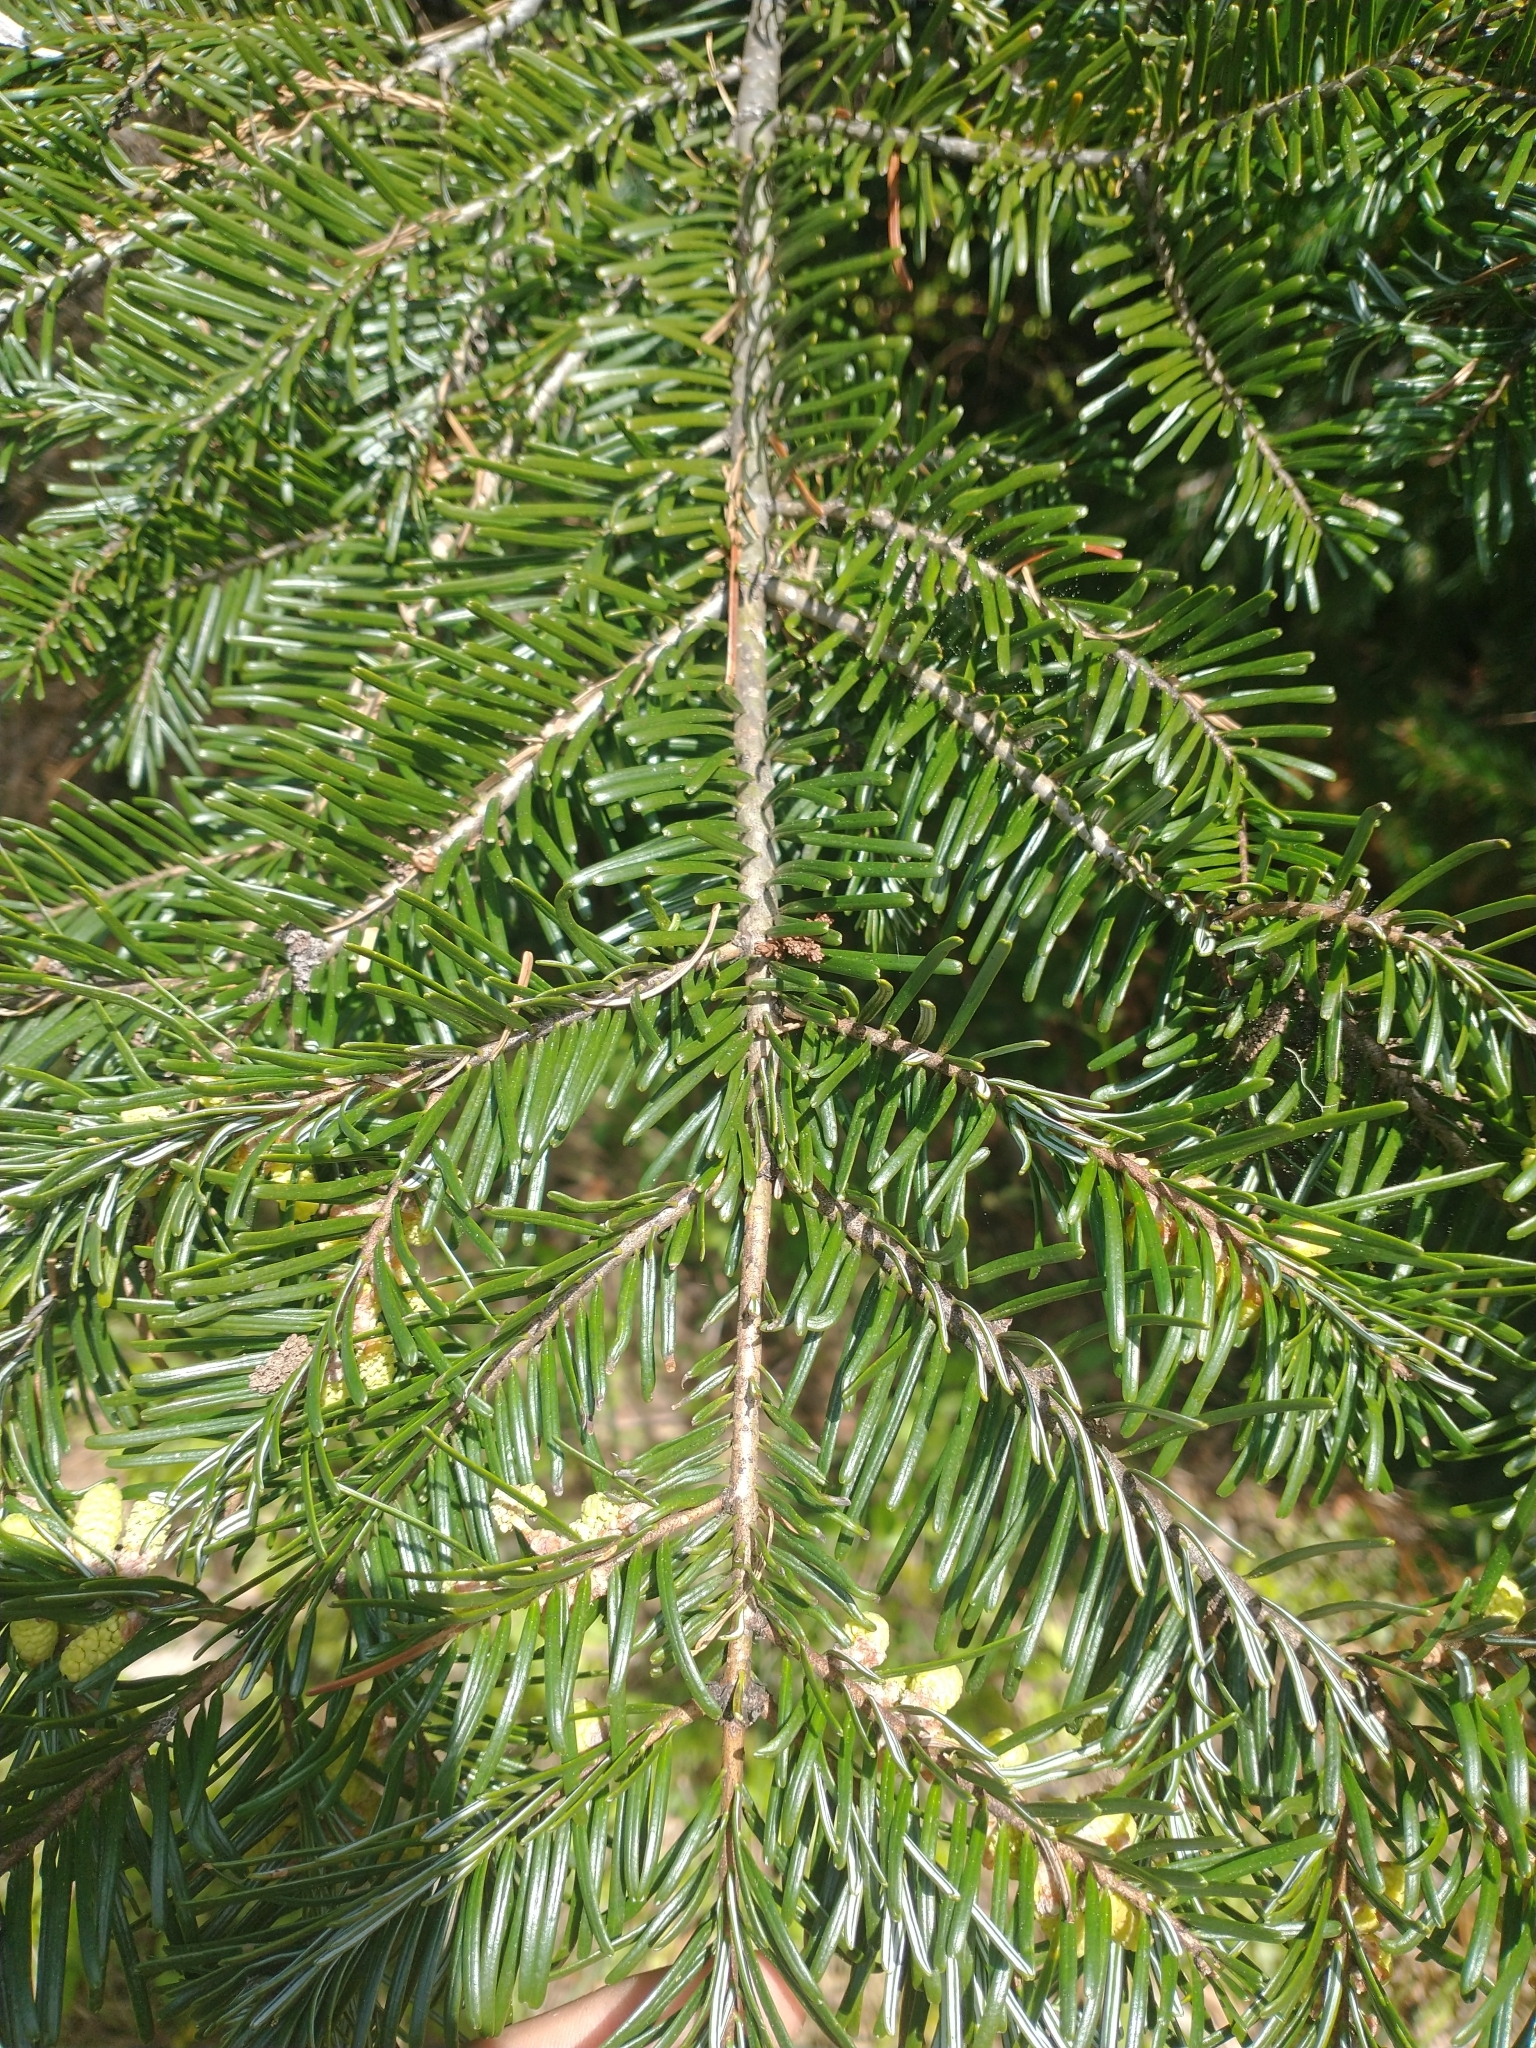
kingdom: Plantae
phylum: Tracheophyta
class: Pinopsida
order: Pinales
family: Pinaceae
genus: Abies
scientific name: Abies grandis
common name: Giant fir
